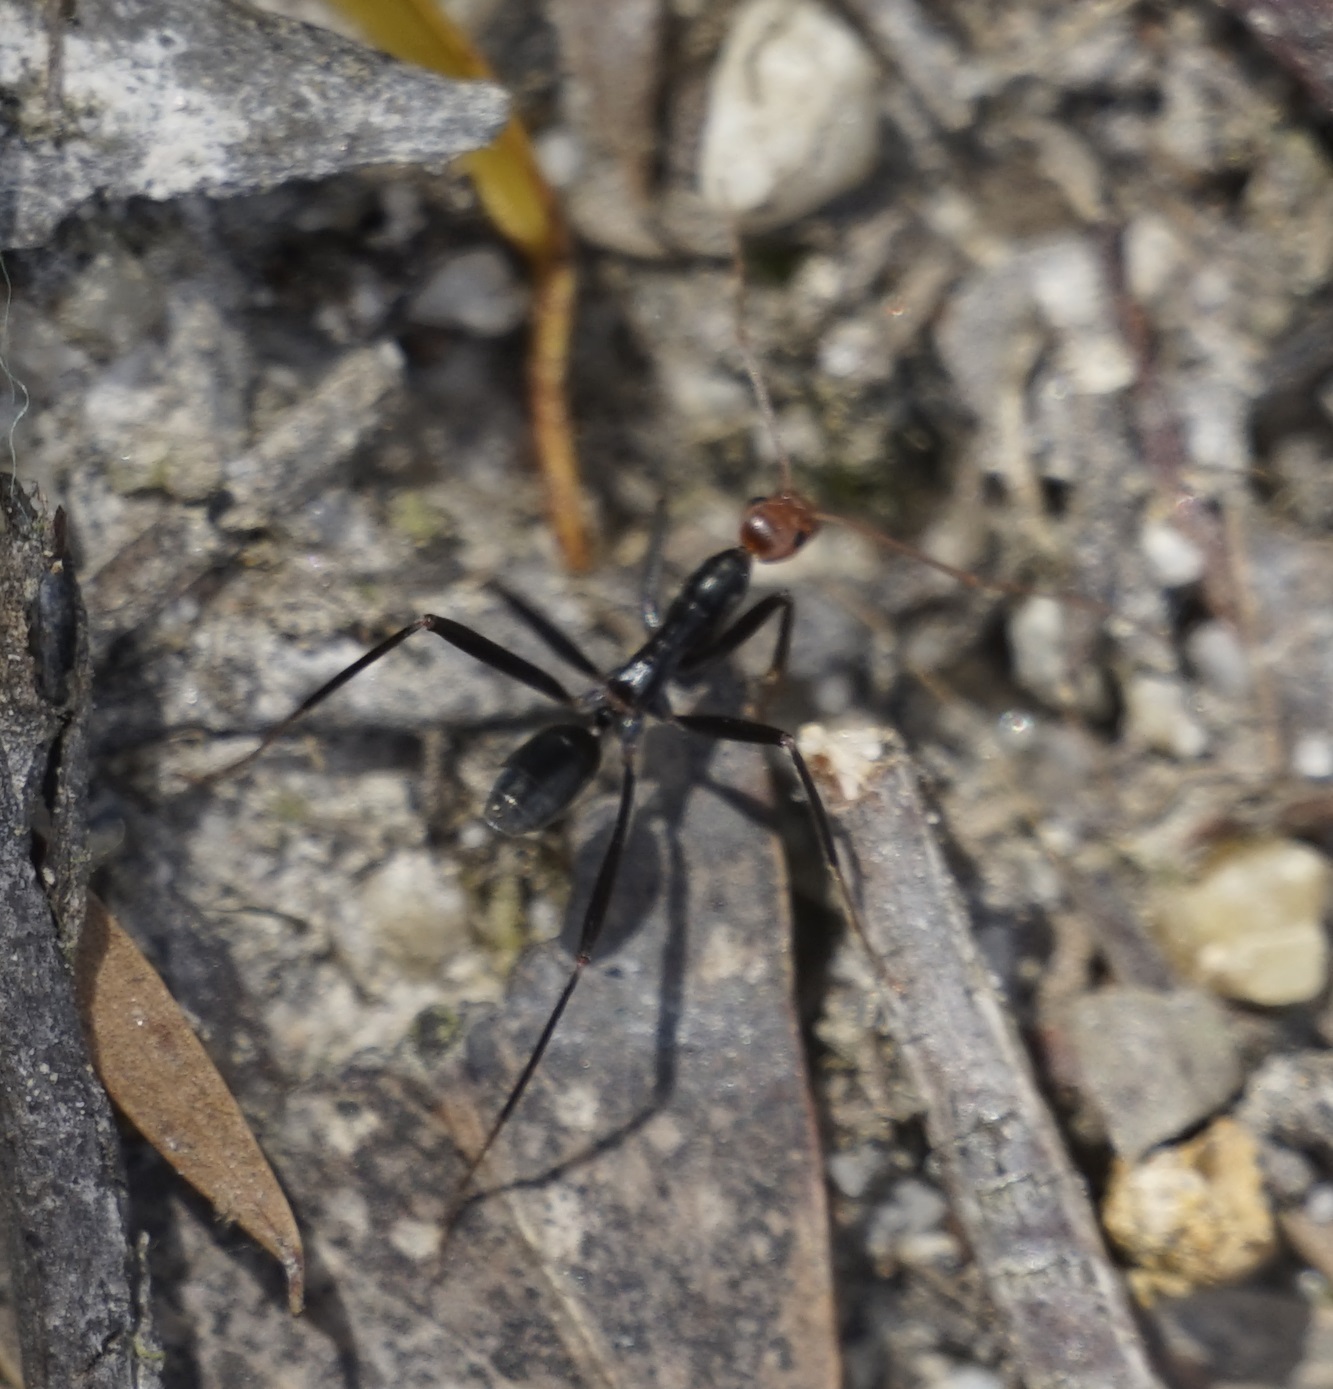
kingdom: Animalia
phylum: Arthropoda
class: Insecta
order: Hymenoptera
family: Formicidae
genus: Leptomyrmex
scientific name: Leptomyrmex erythrocephalus
